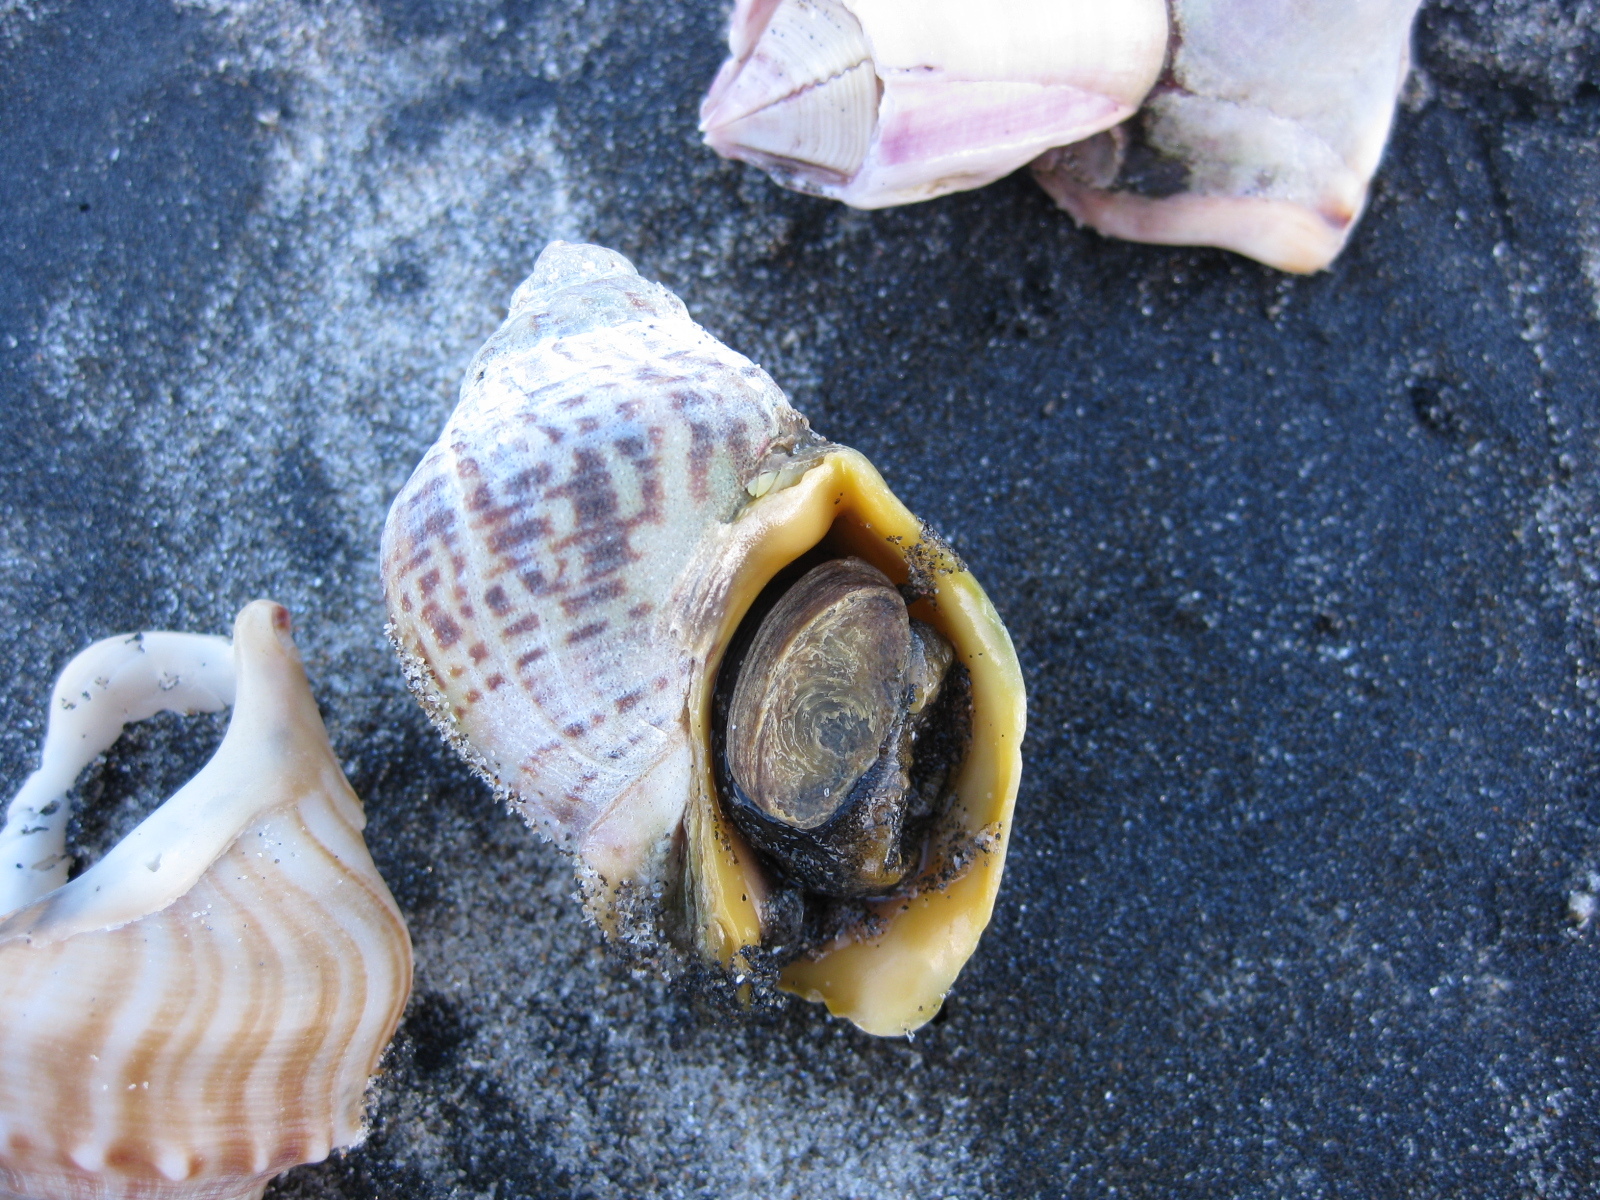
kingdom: Animalia
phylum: Mollusca
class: Gastropoda
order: Neogastropoda
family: Cominellidae
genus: Cominella
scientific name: Cominella adspersa
